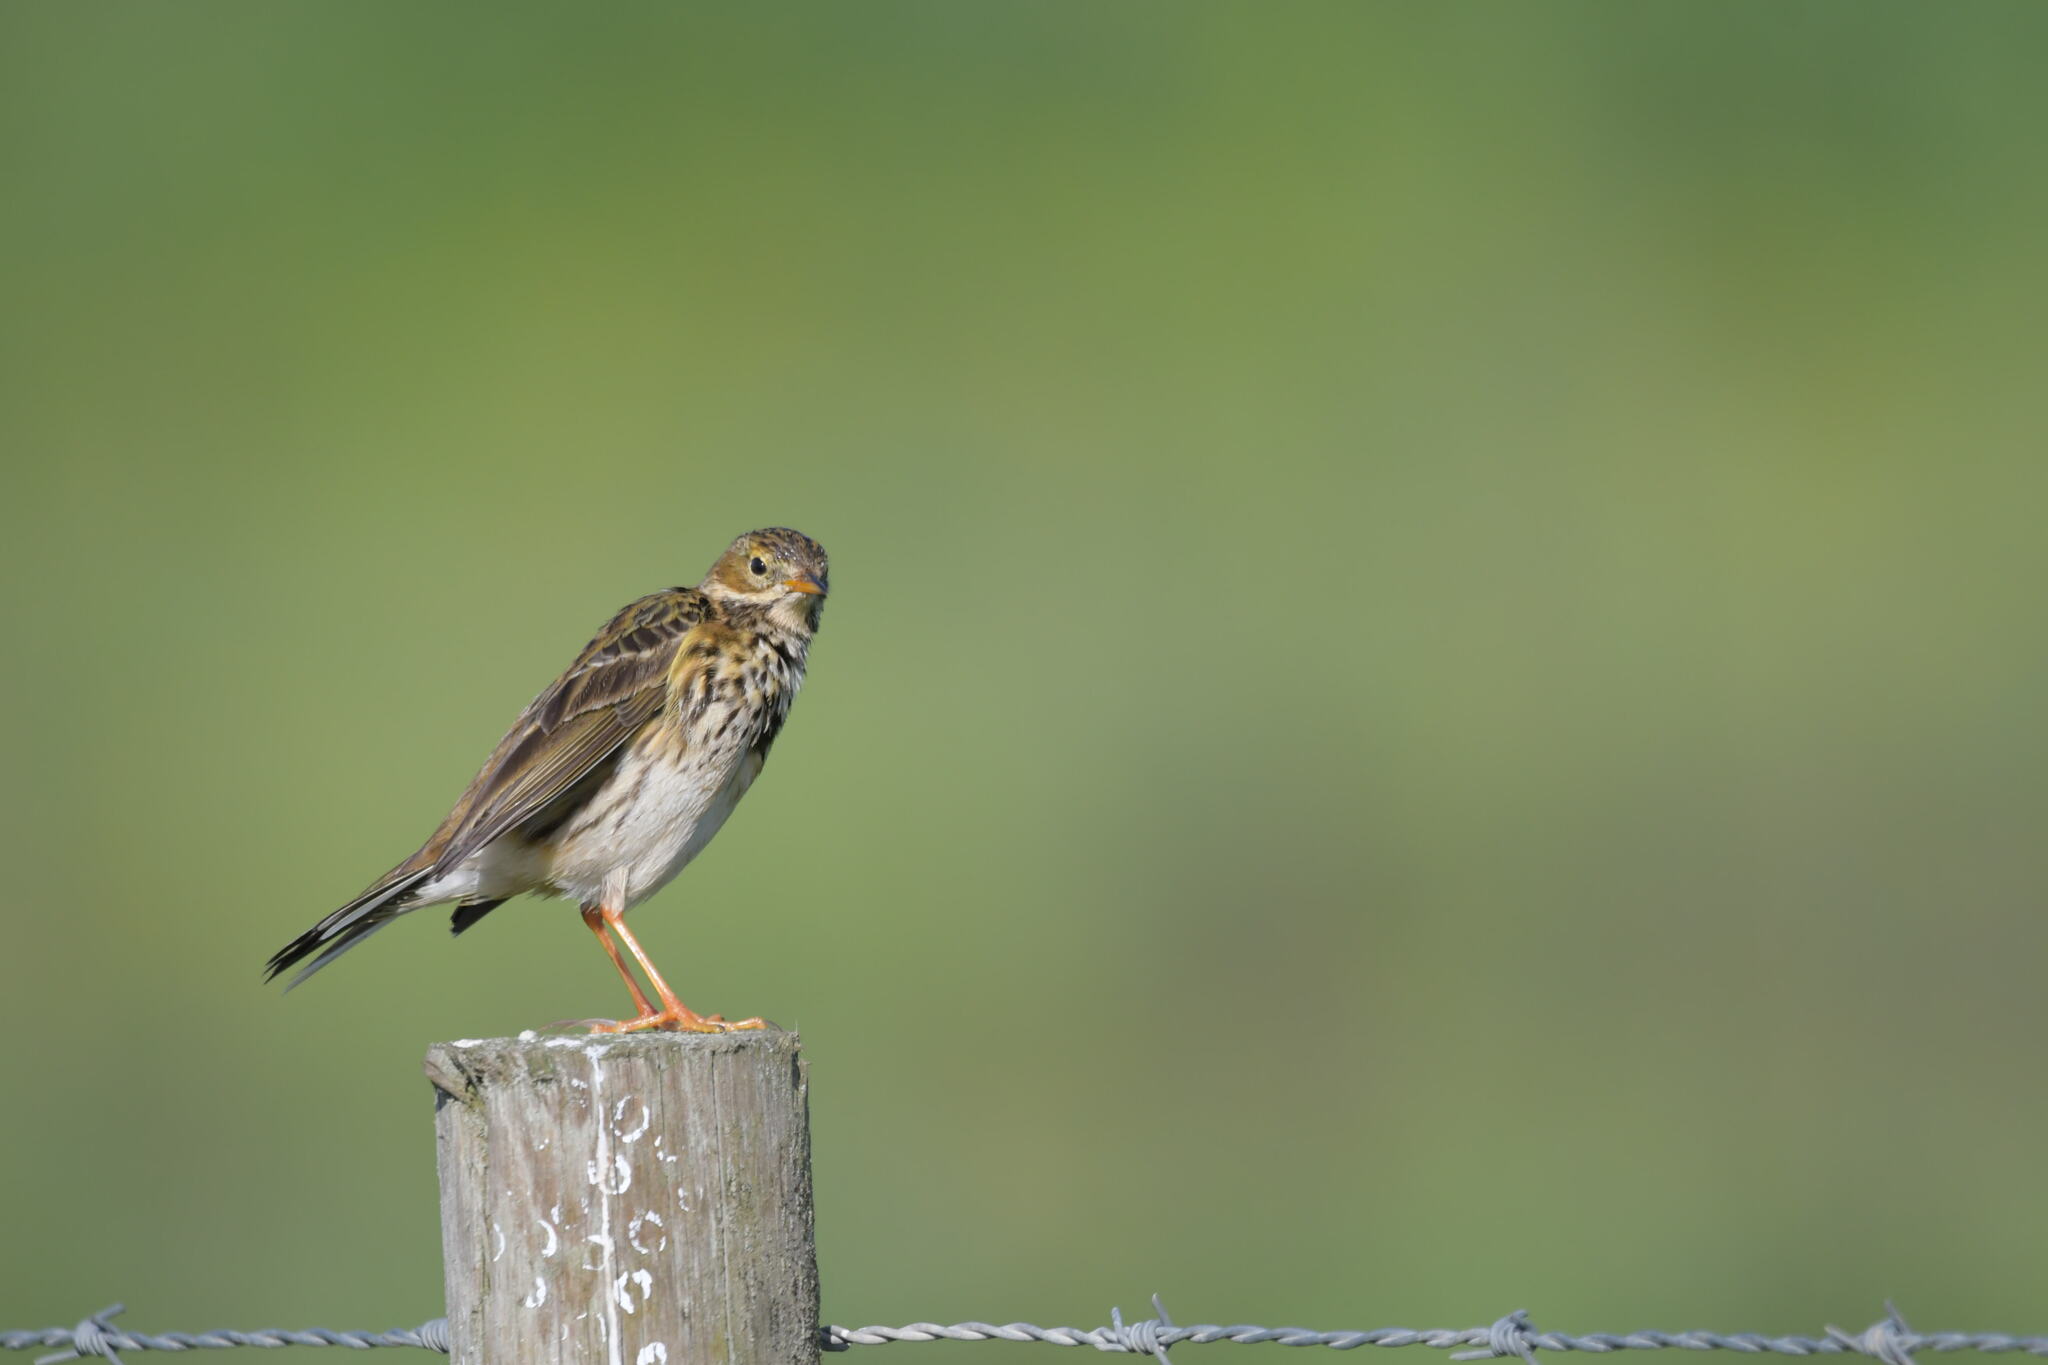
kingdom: Animalia
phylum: Chordata
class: Aves
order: Passeriformes
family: Motacillidae
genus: Anthus
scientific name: Anthus pratensis
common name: Meadow pipit
